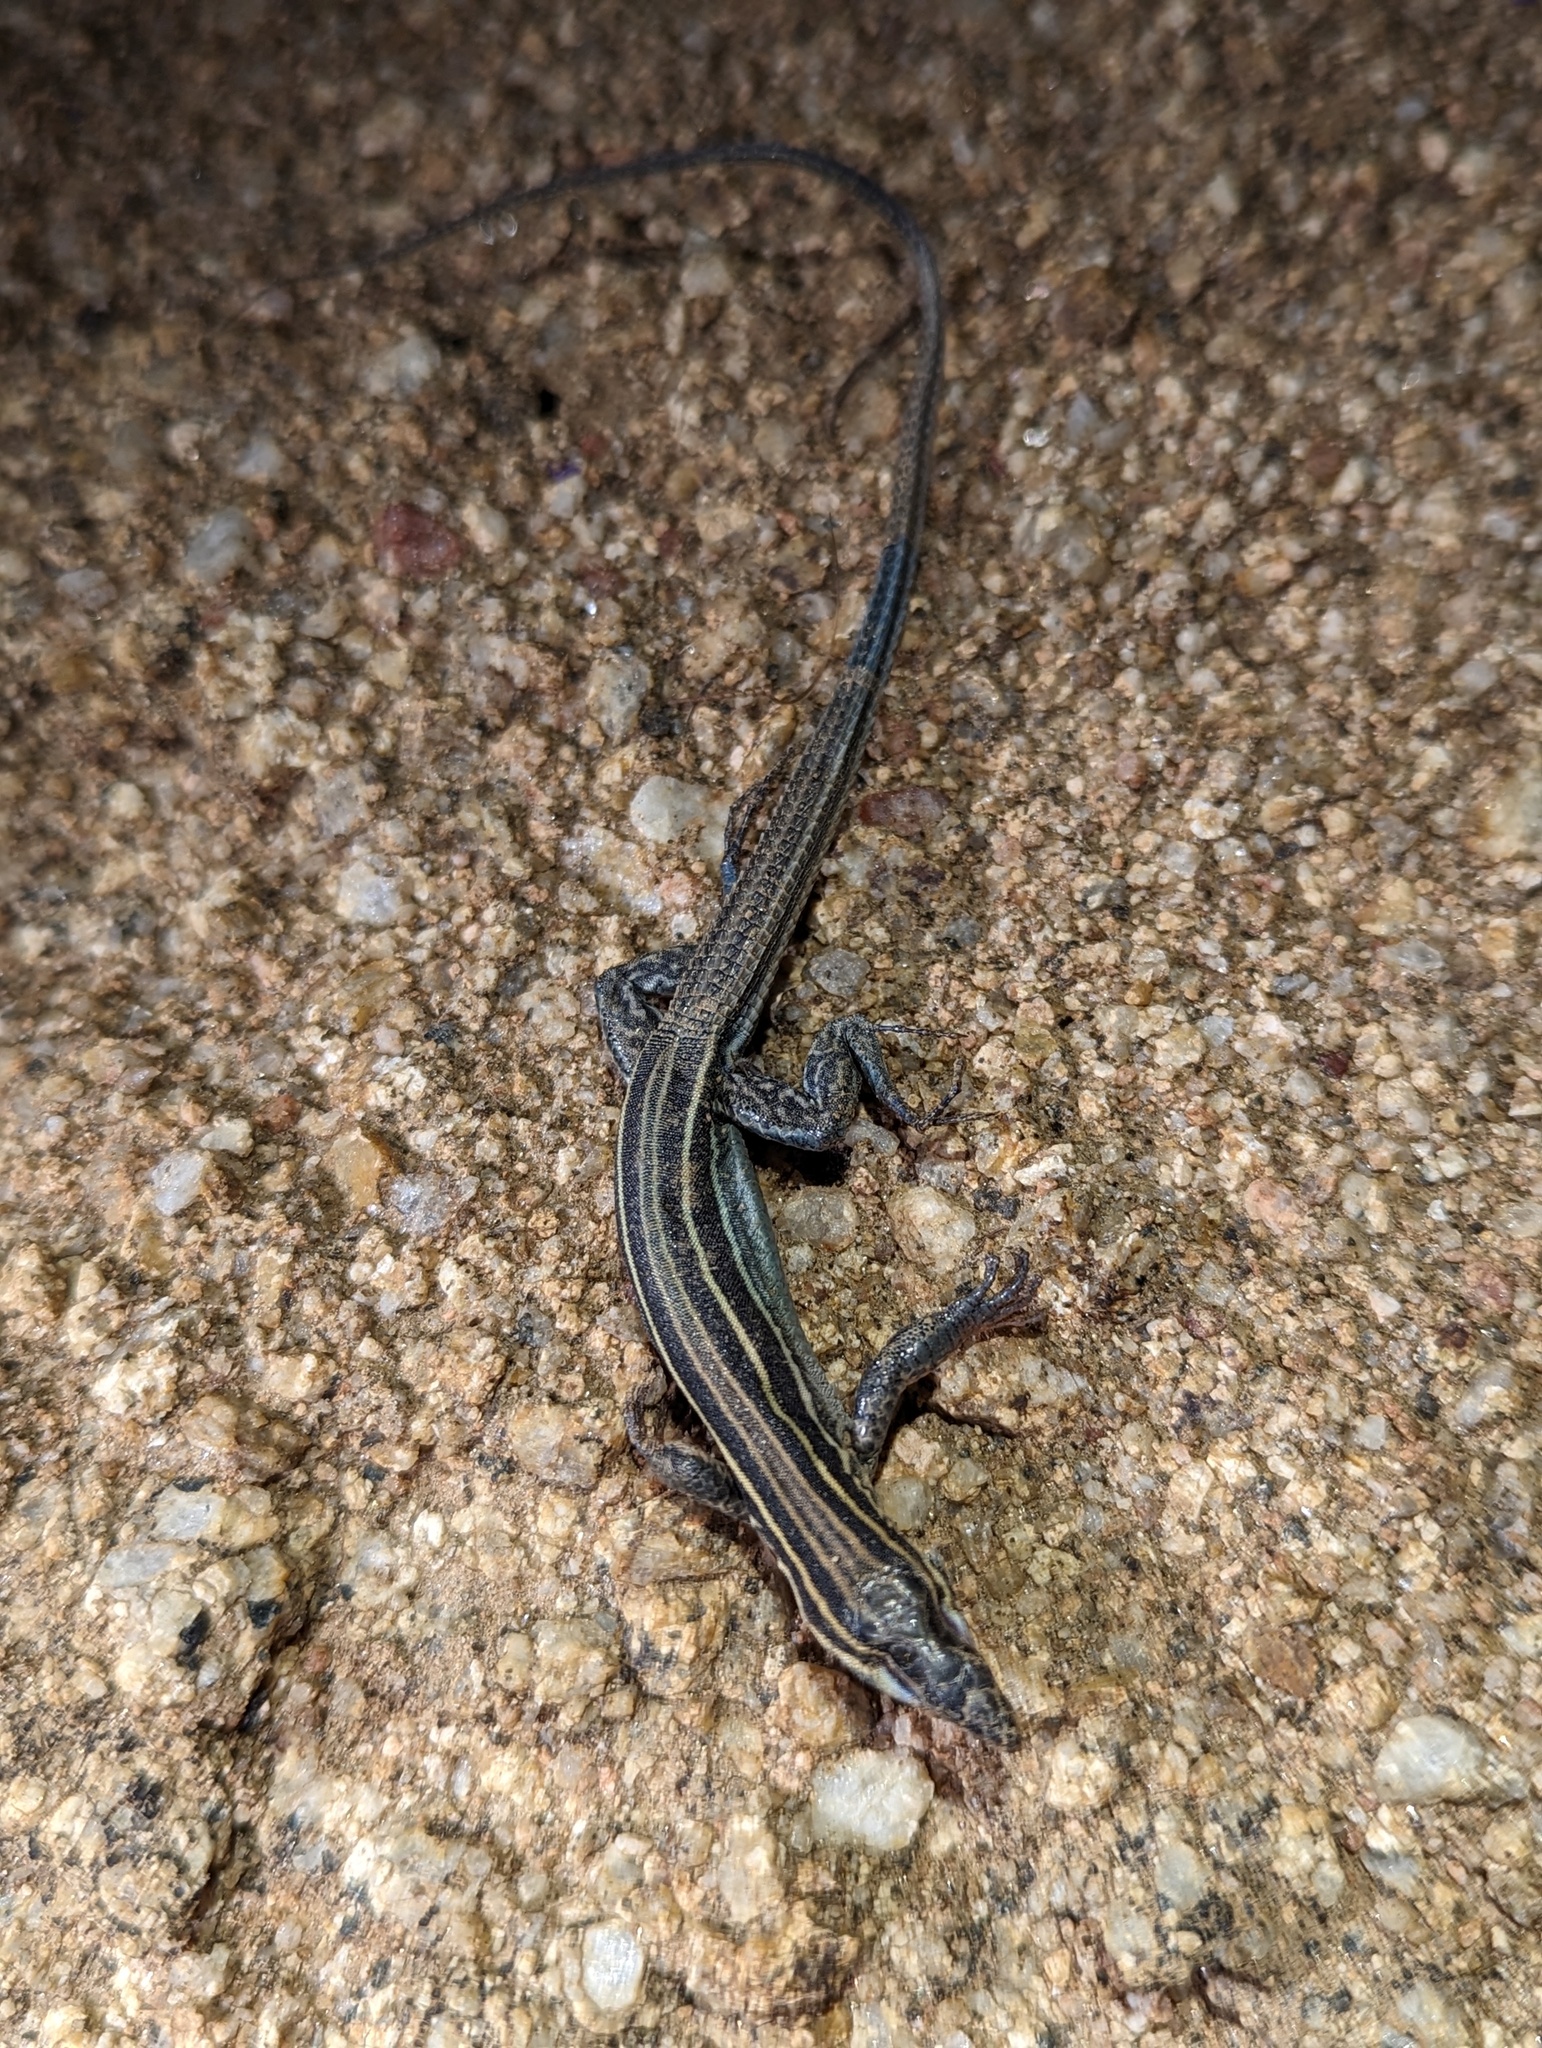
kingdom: Animalia
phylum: Chordata
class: Squamata
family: Teiidae
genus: Aspidoscelis
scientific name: Aspidoscelis hyperythrus
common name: Orange-throated race-runner
